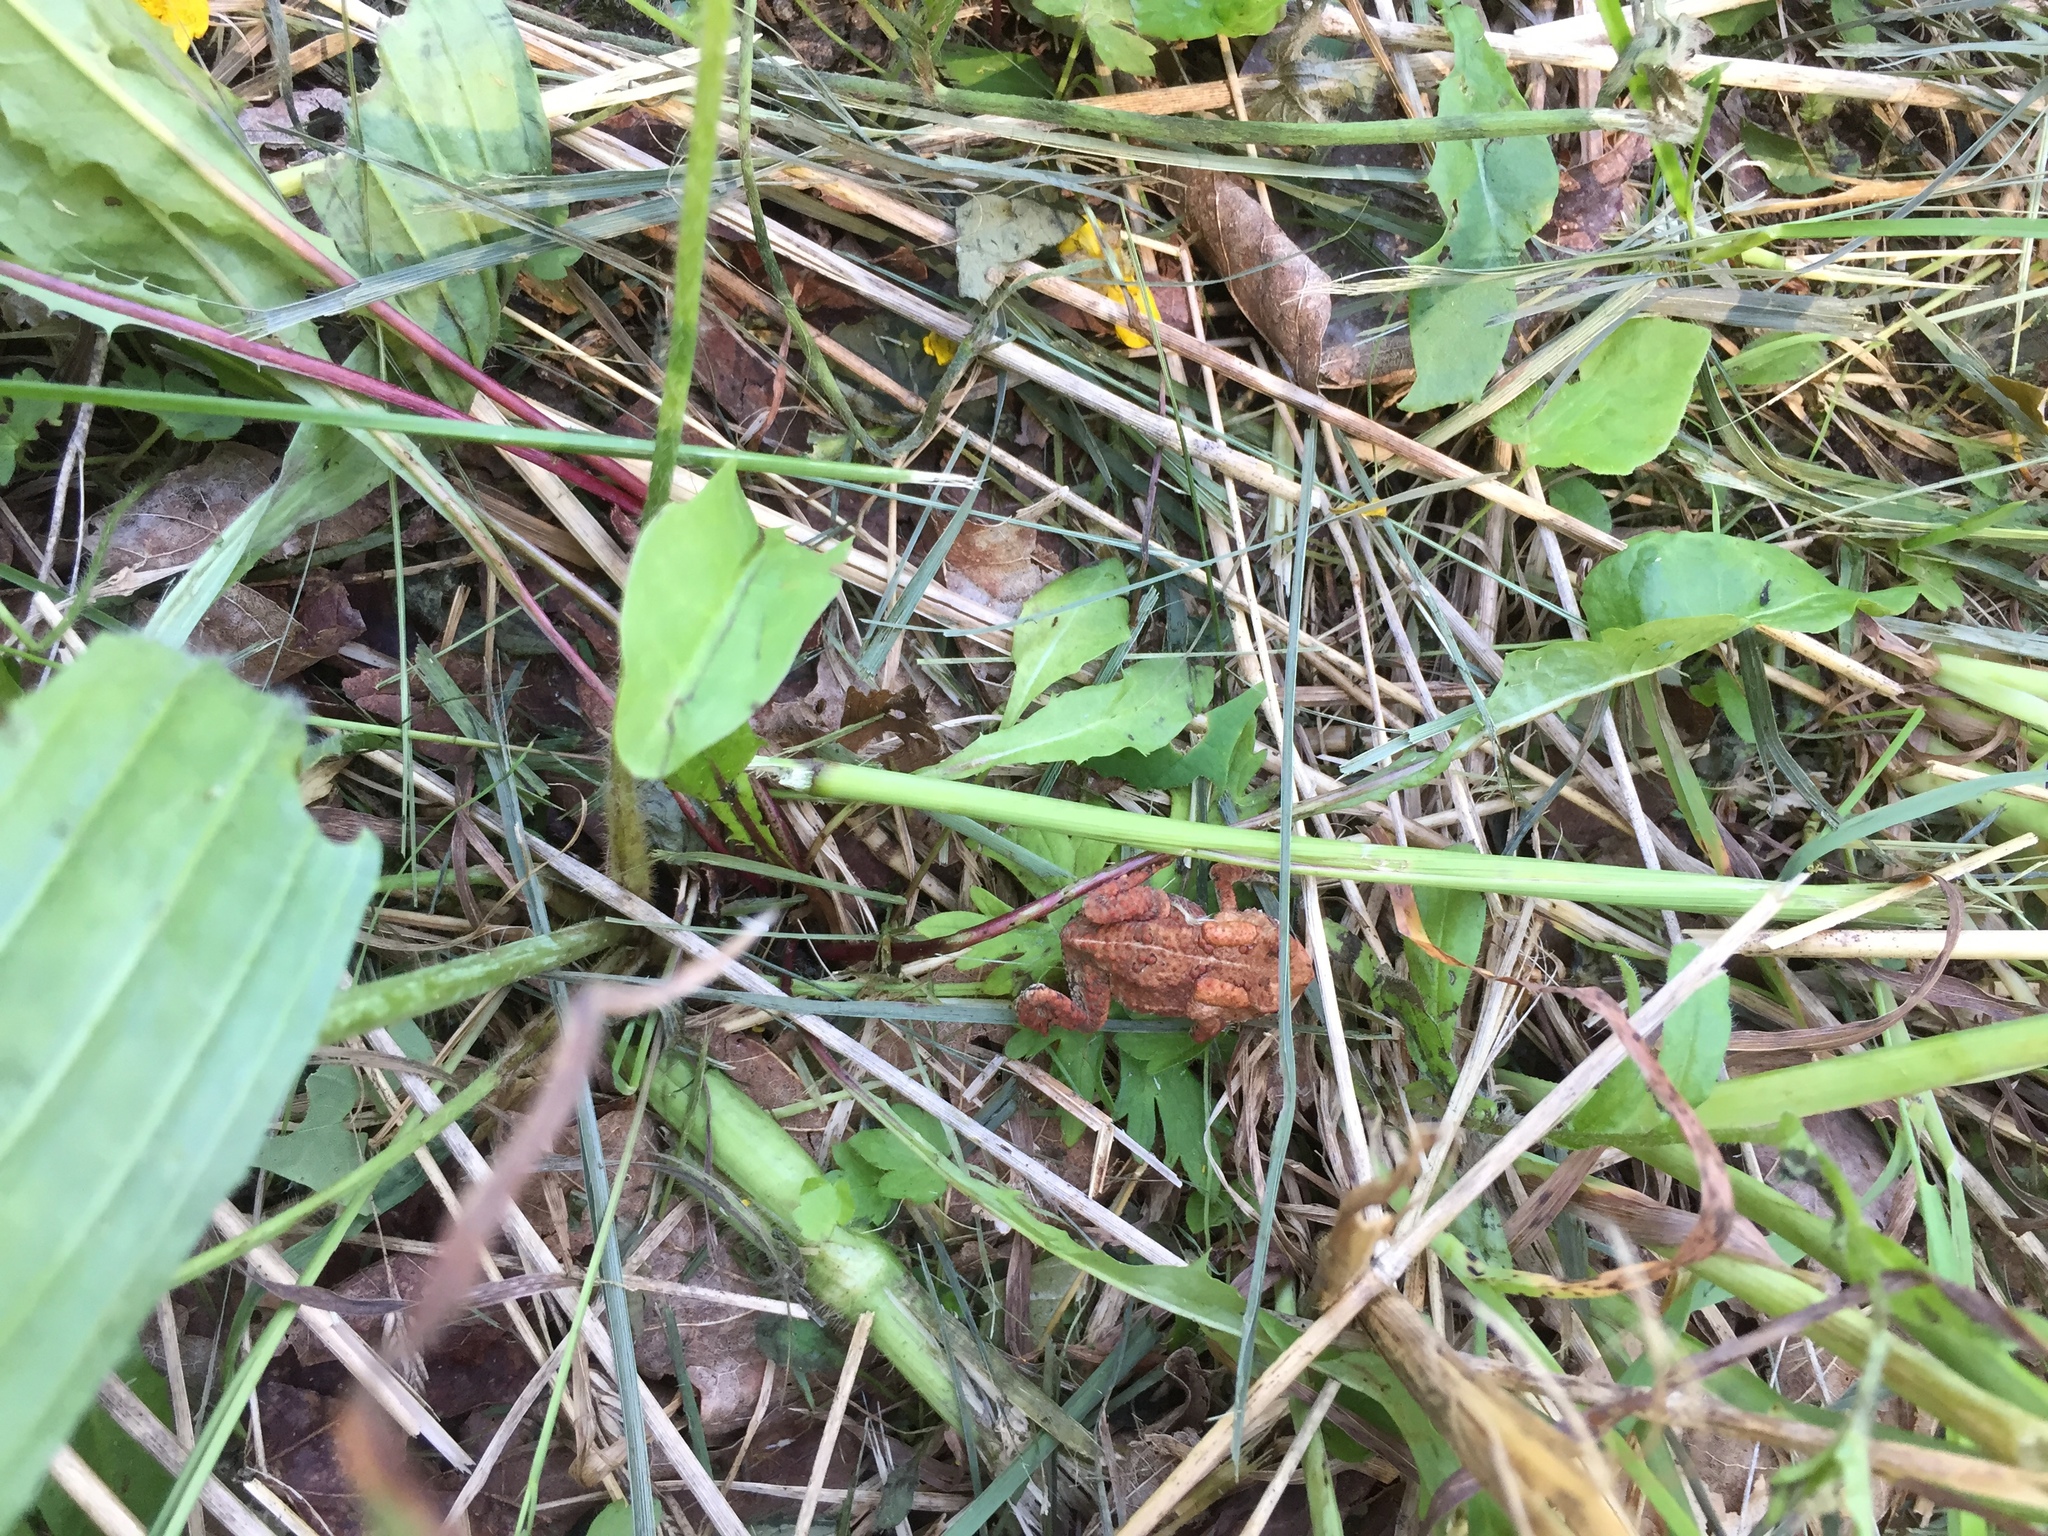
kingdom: Animalia
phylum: Chordata
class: Amphibia
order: Anura
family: Bufonidae
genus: Anaxyrus
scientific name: Anaxyrus americanus
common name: American toad
